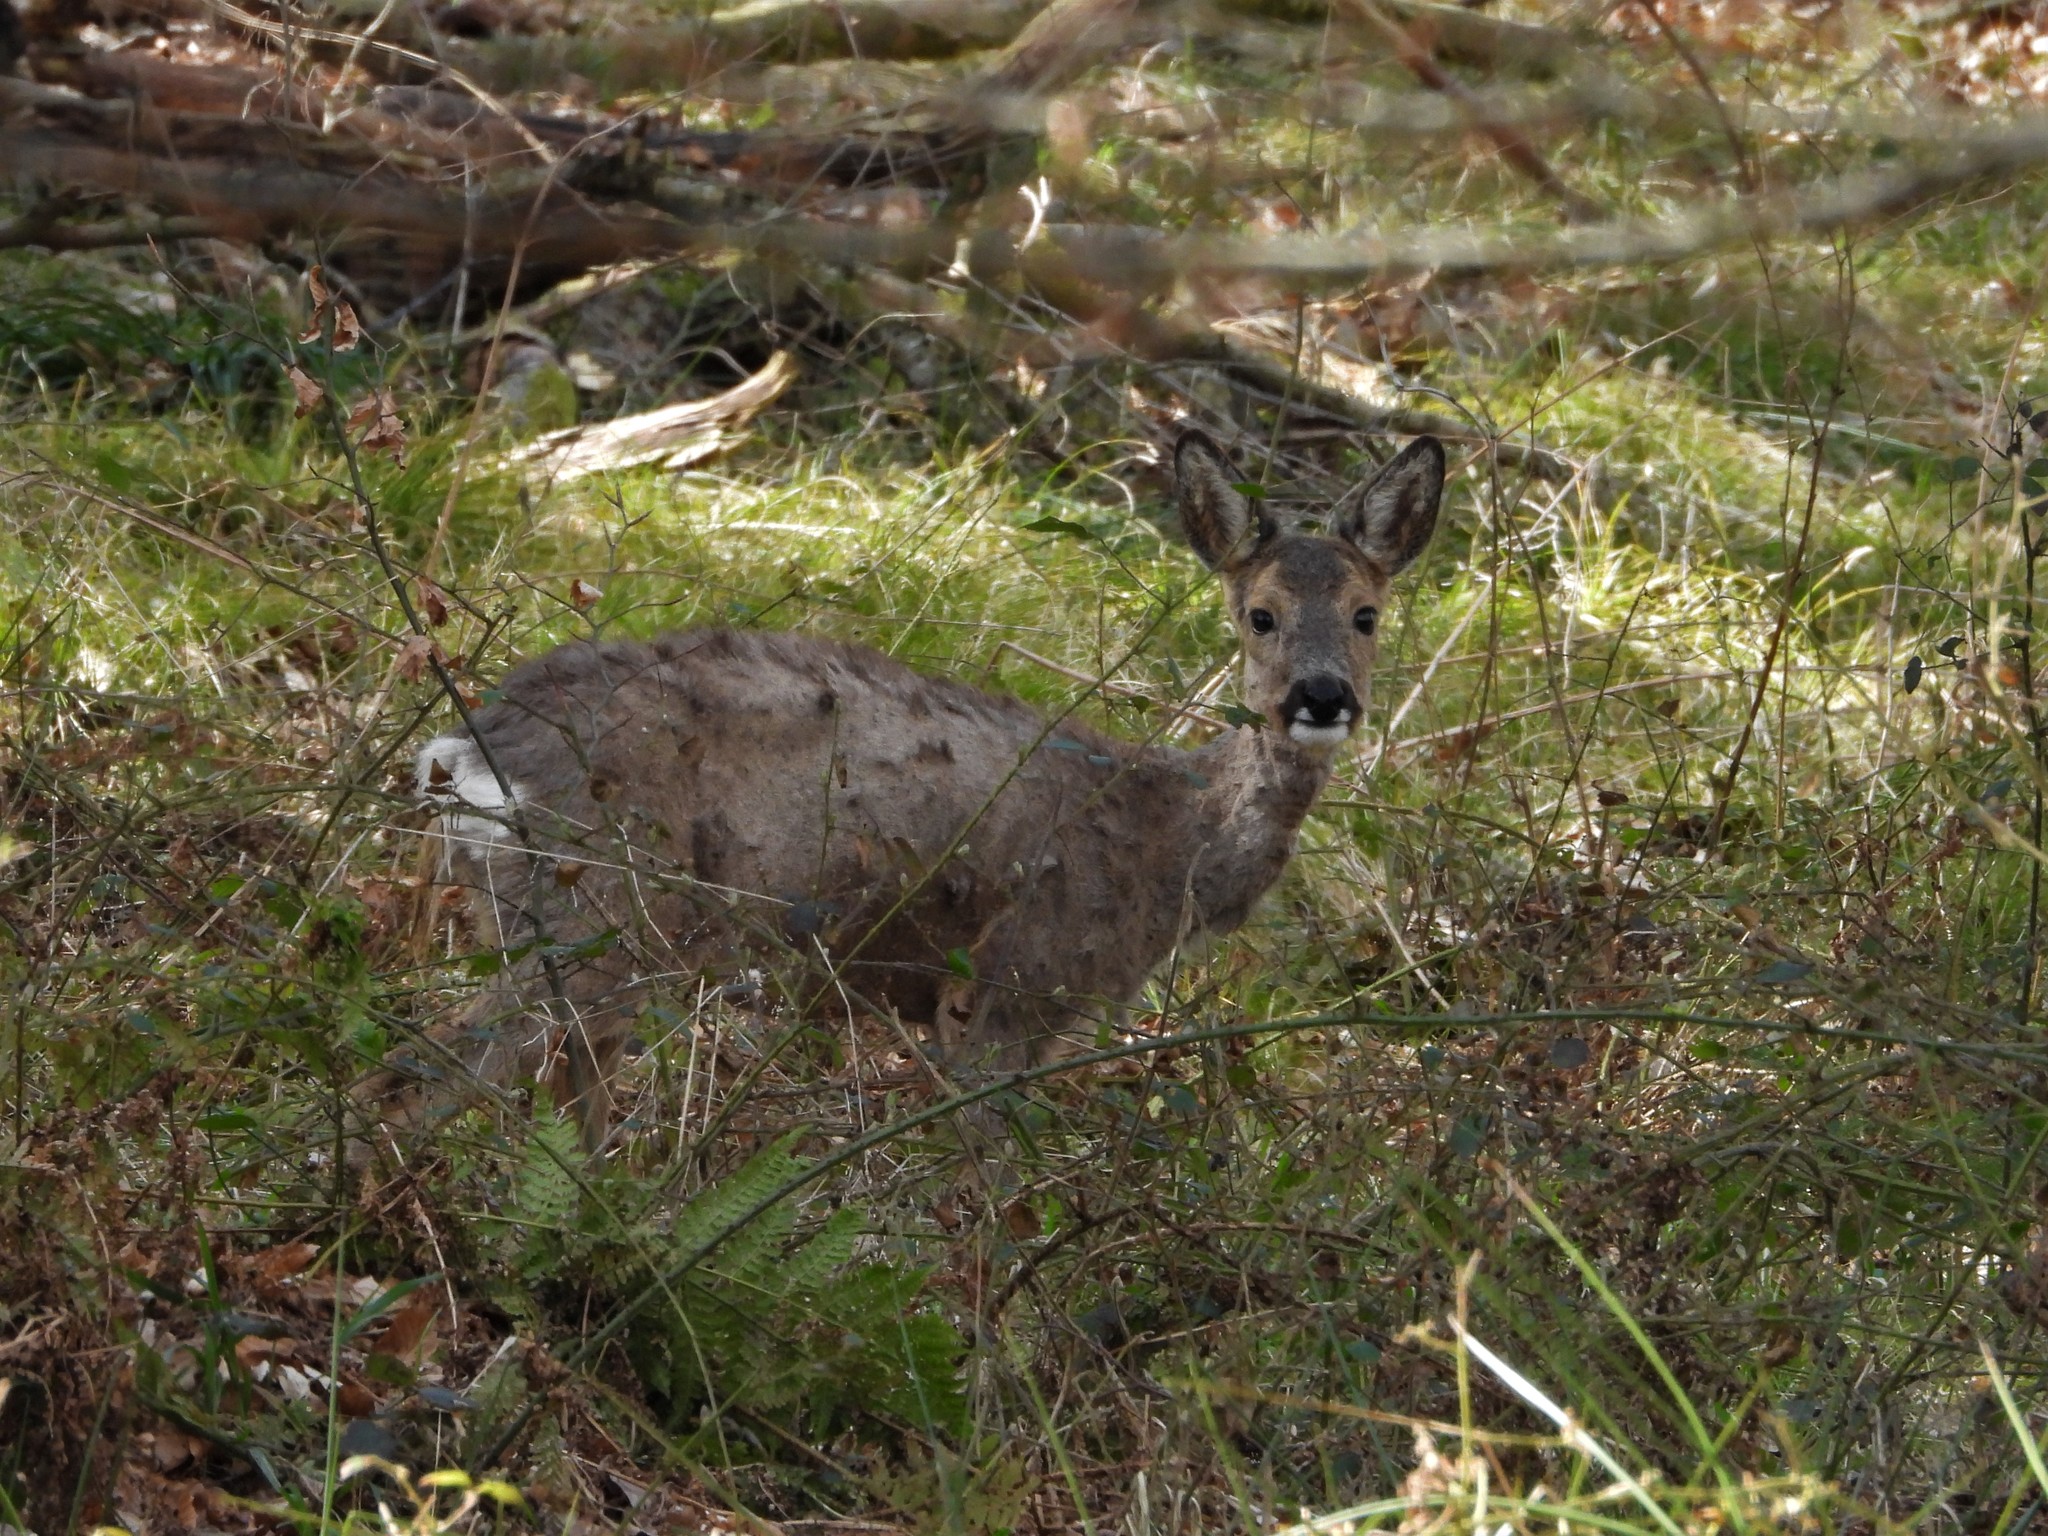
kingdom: Animalia
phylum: Chordata
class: Mammalia
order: Artiodactyla
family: Cervidae
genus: Capreolus
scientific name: Capreolus capreolus
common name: Western roe deer
